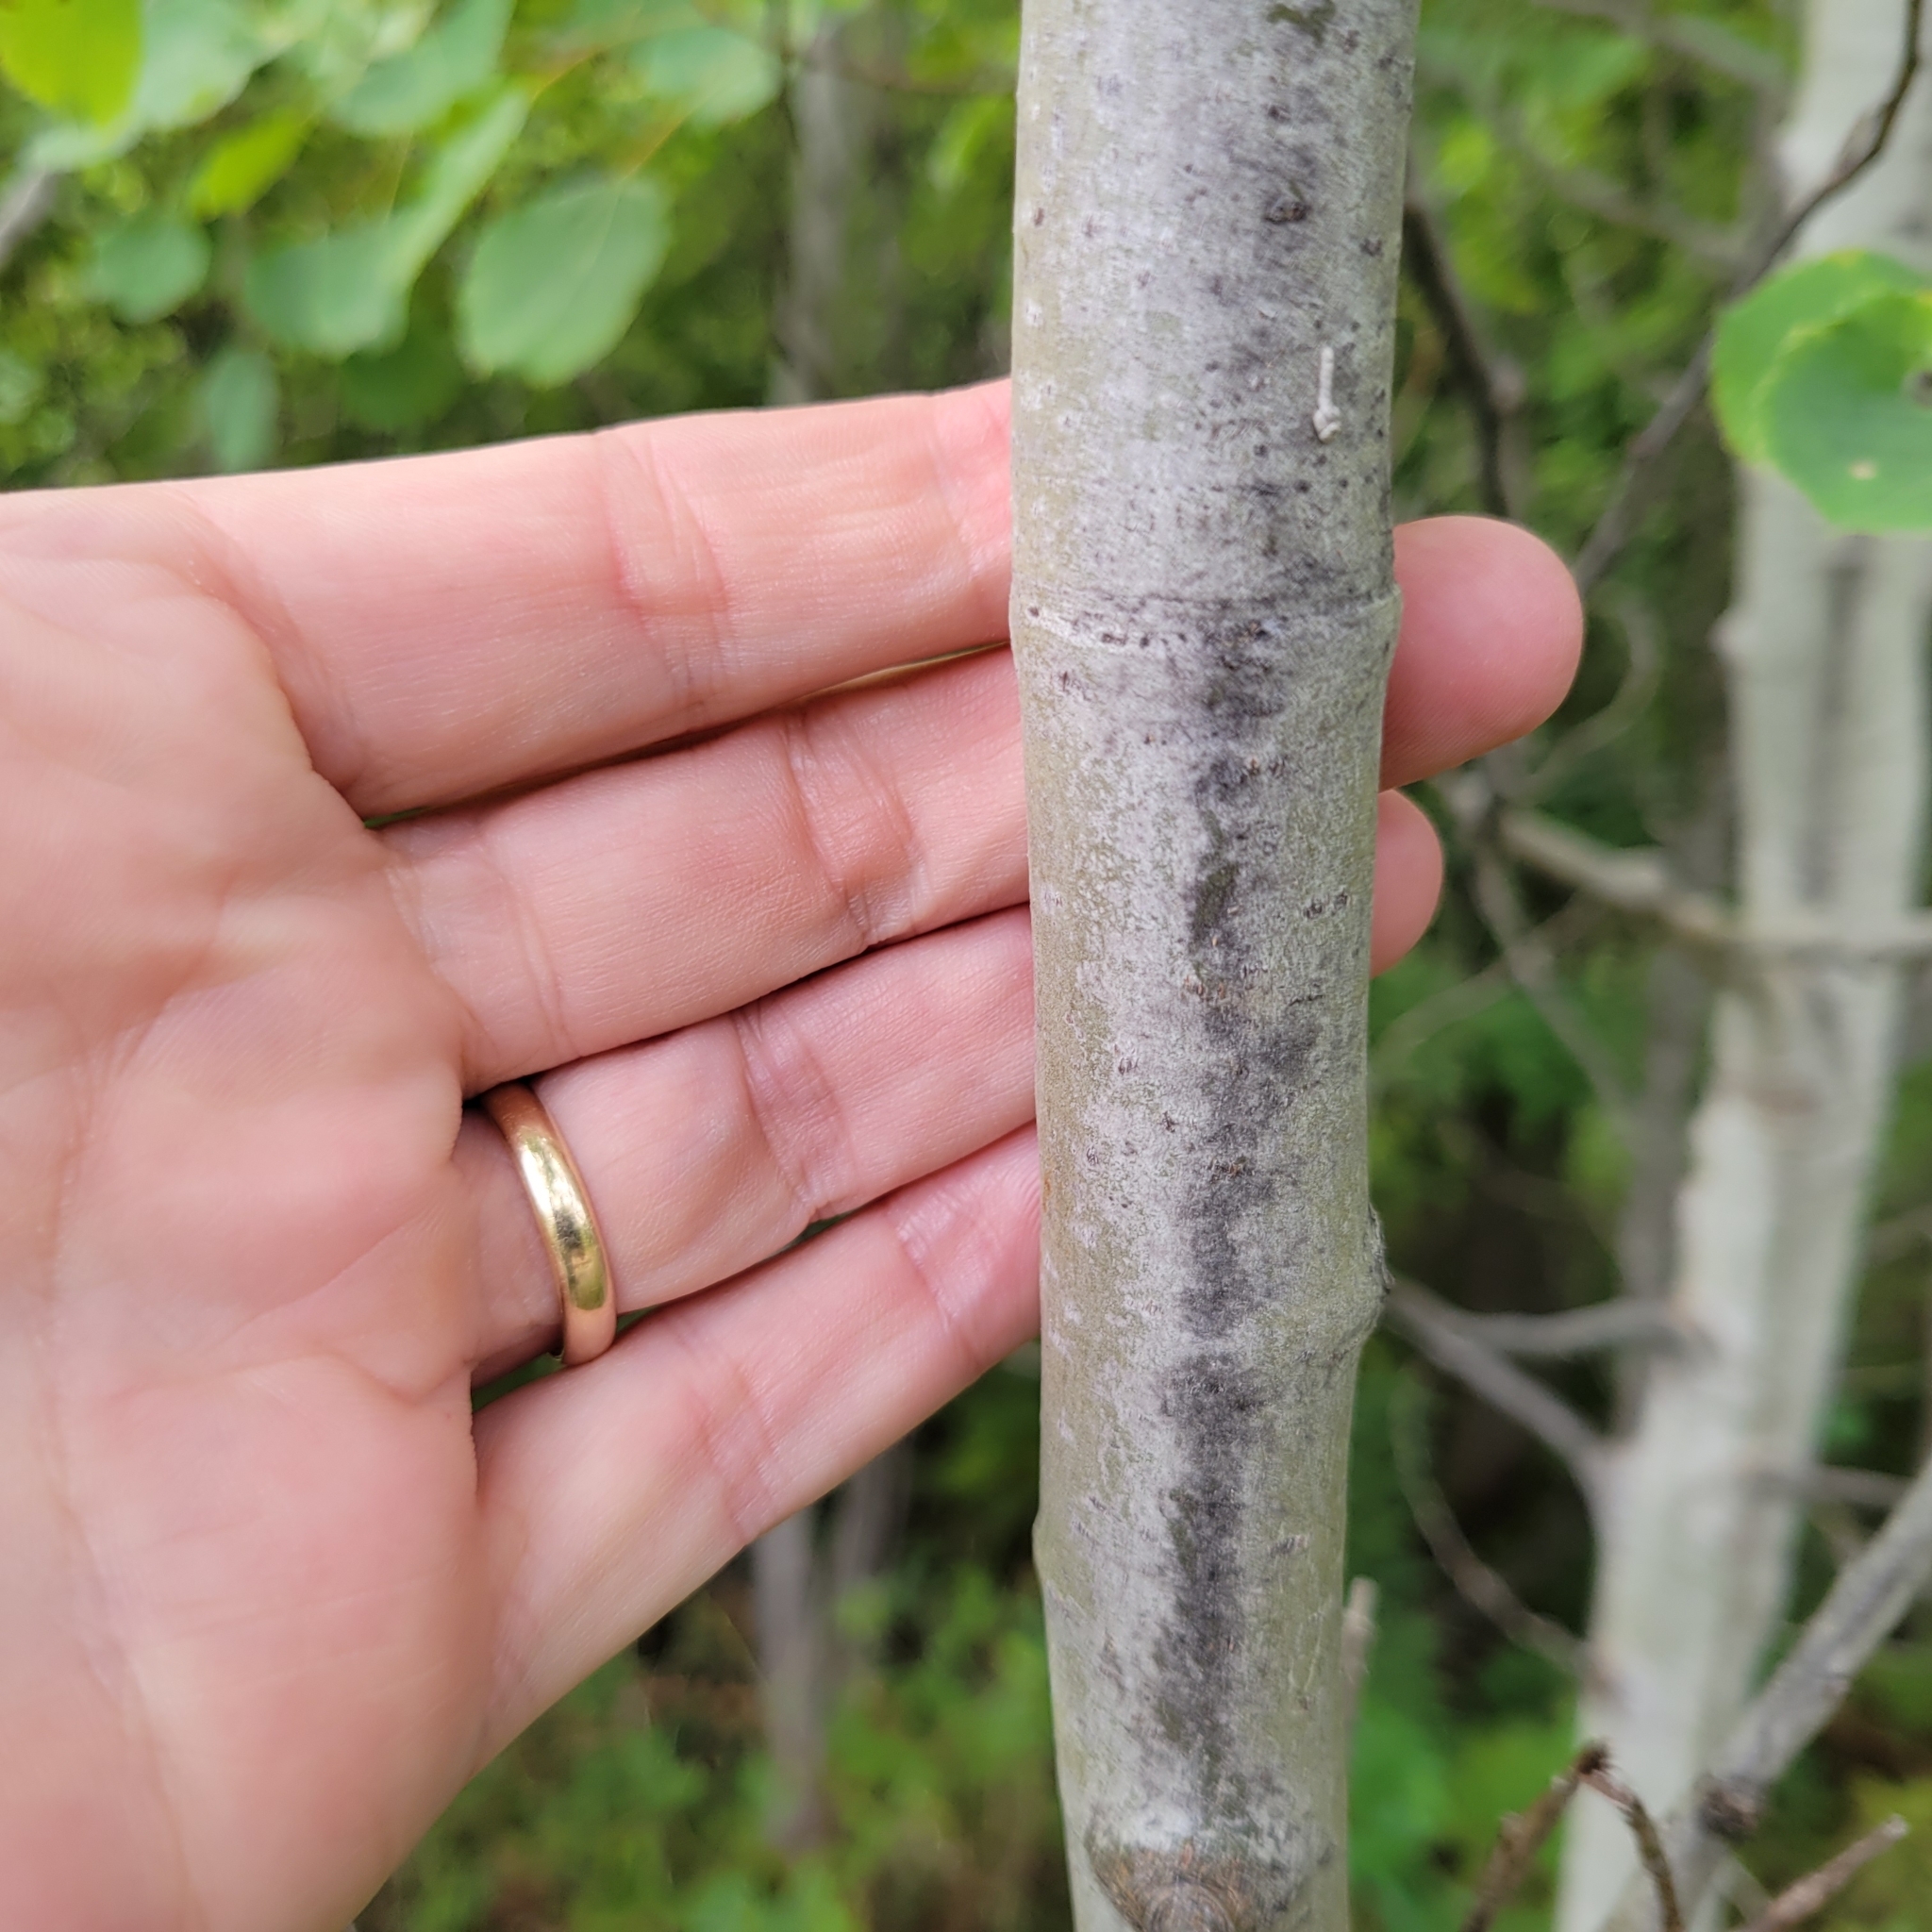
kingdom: Plantae
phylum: Tracheophyta
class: Magnoliopsida
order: Malpighiales
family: Salicaceae
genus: Populus
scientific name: Populus tremuloides
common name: Quaking aspen
